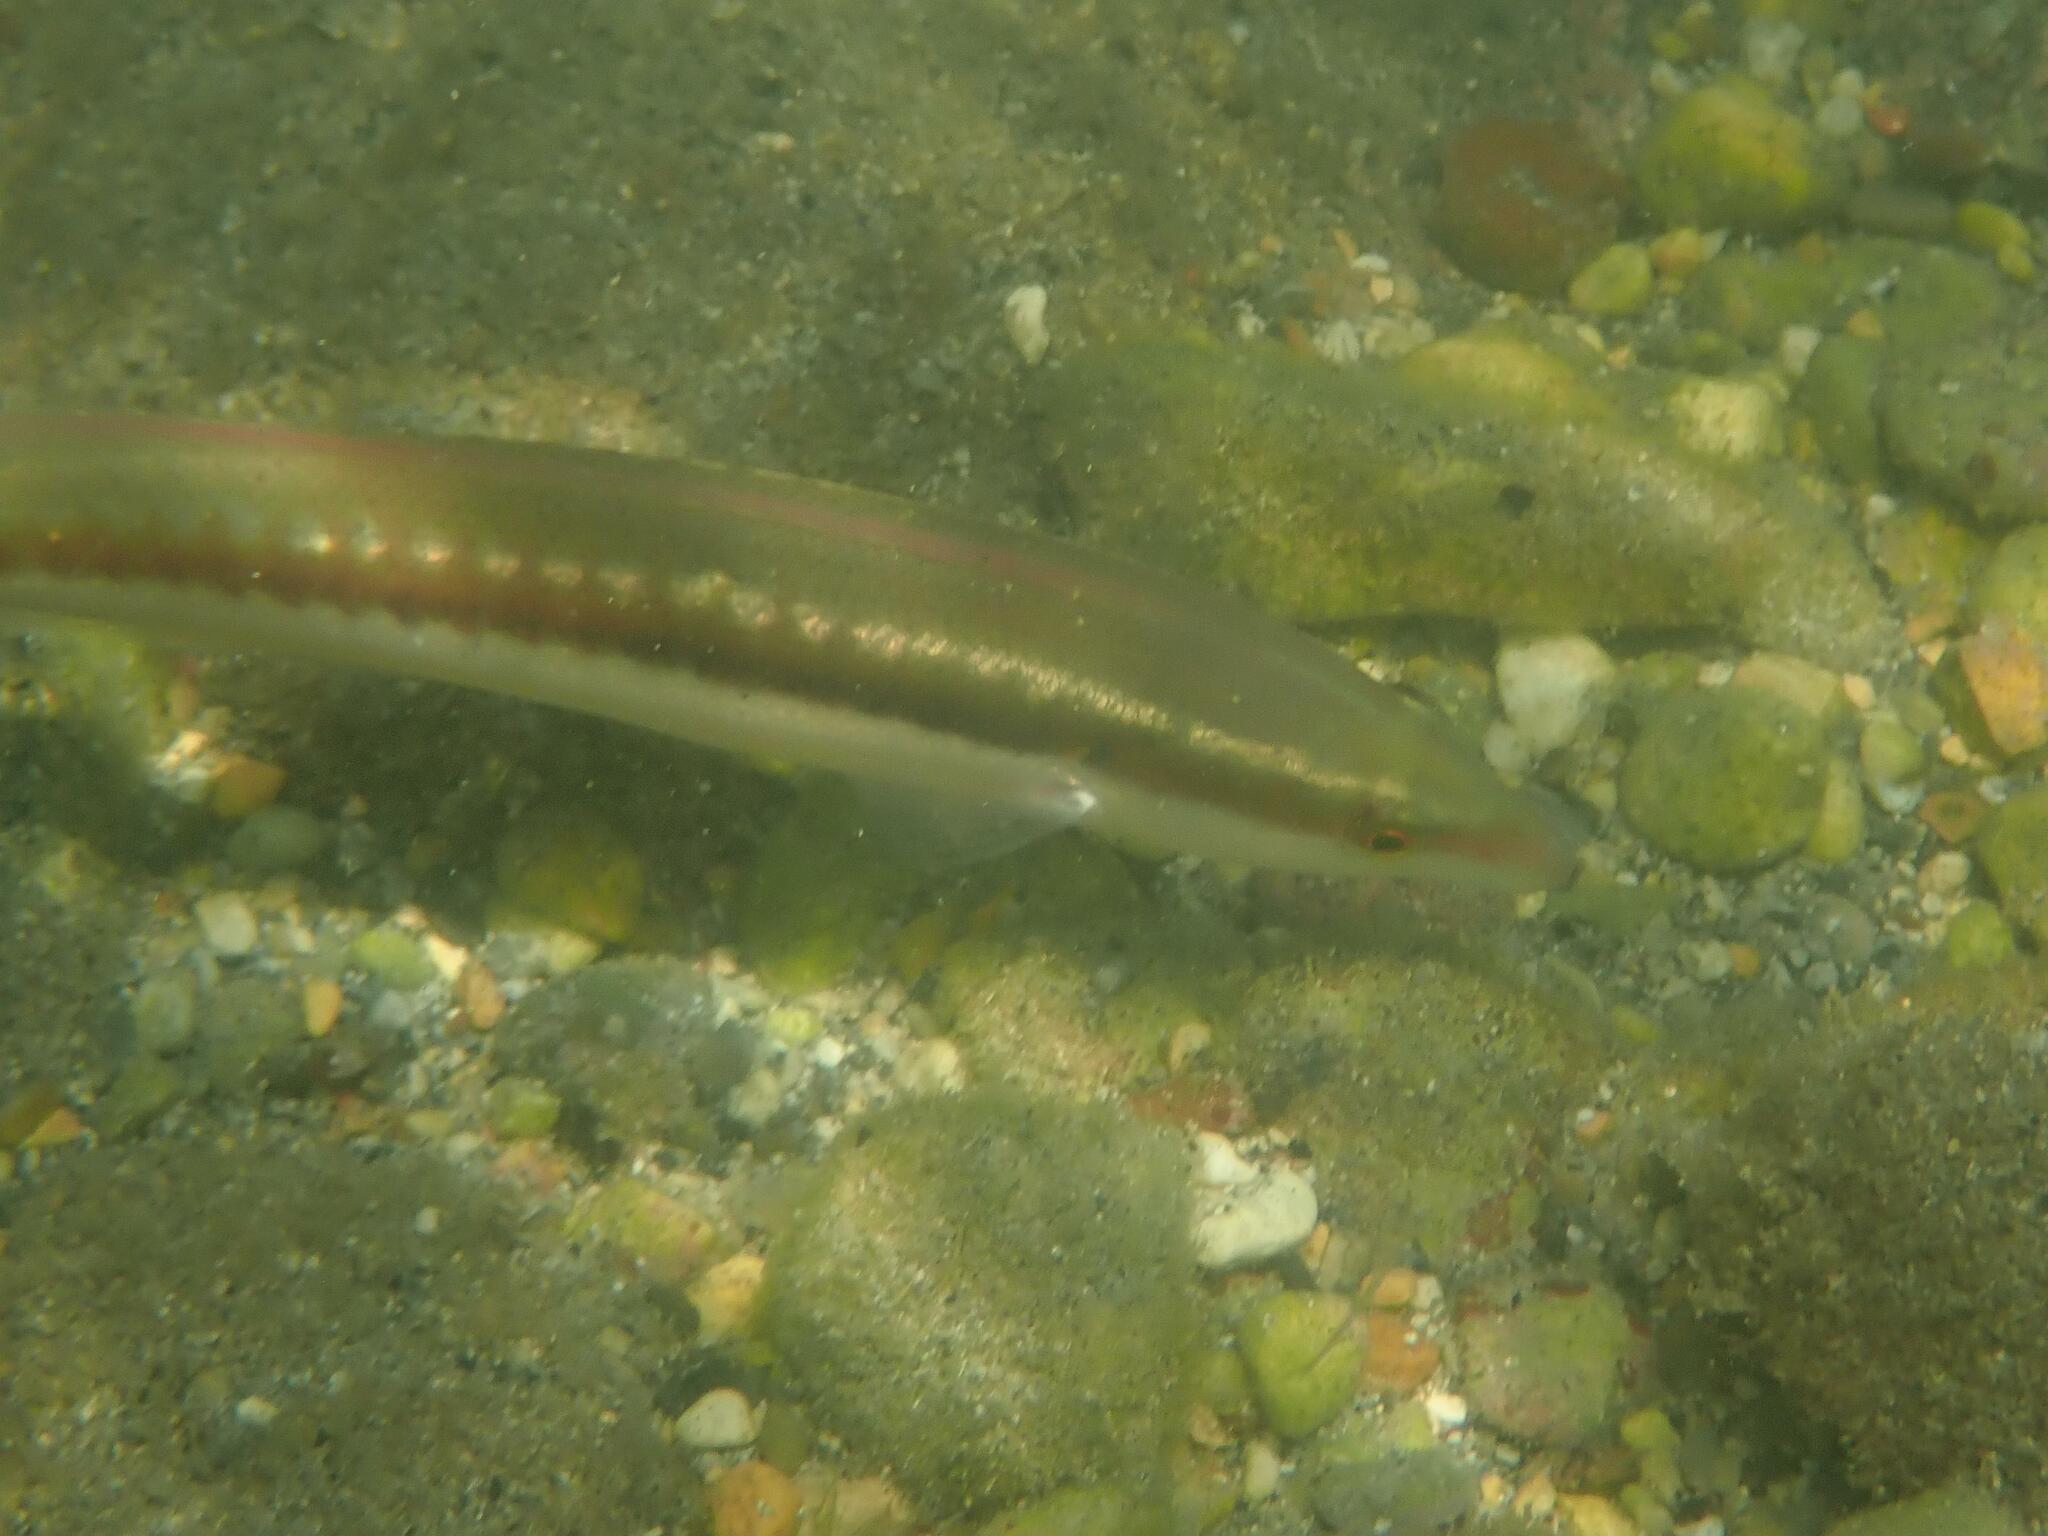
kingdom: Animalia
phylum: Chordata
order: Perciformes
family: Labridae
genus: Coris
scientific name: Coris julis
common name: Rainbow wrasse
